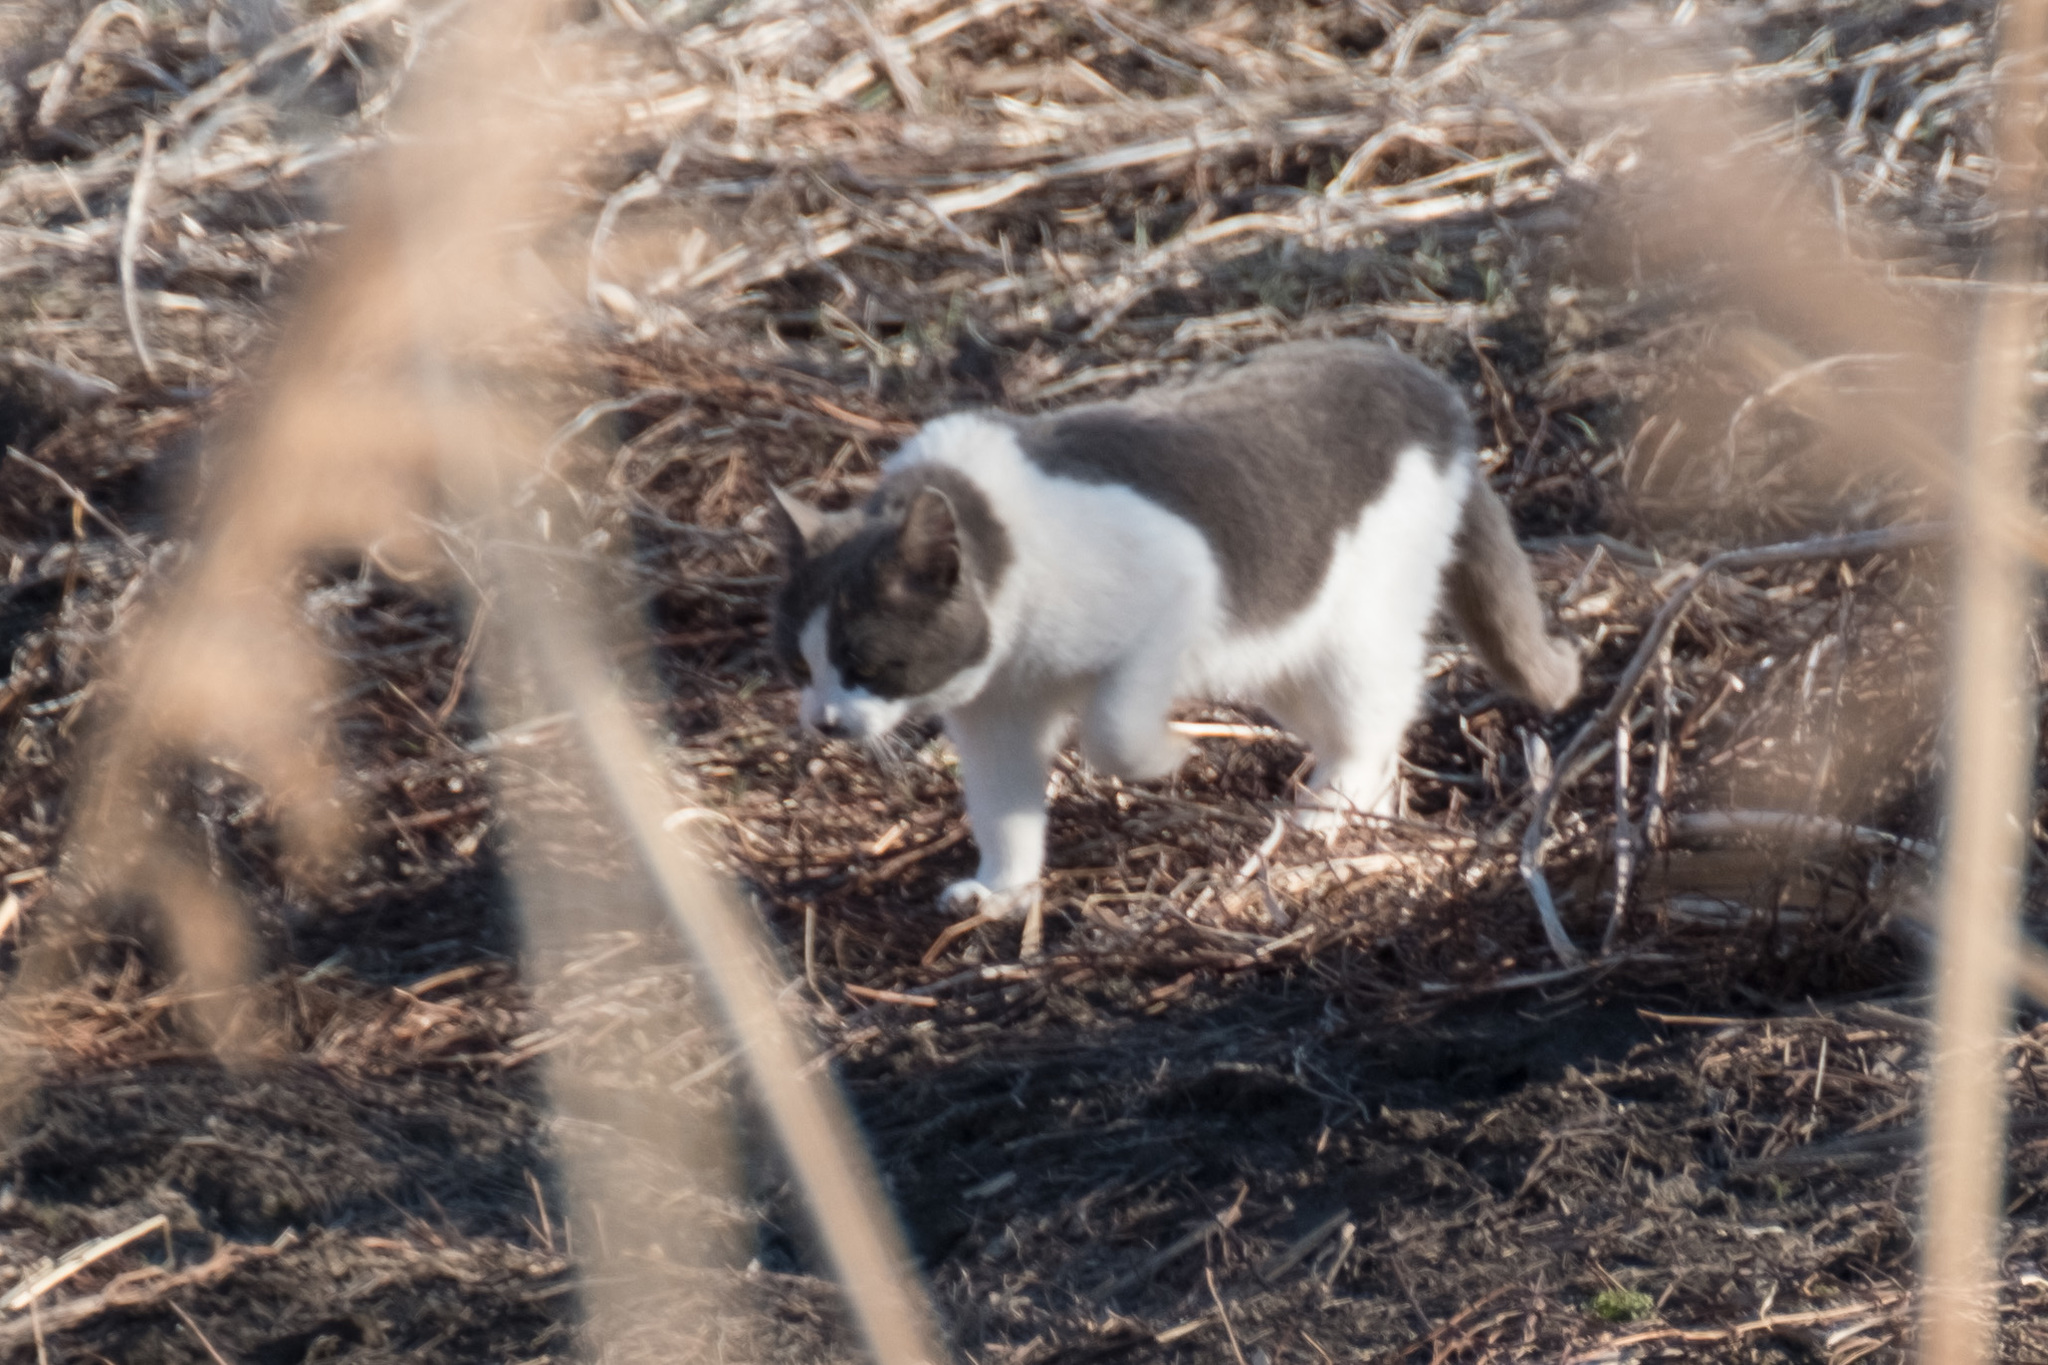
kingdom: Animalia
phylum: Chordata
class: Mammalia
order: Carnivora
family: Felidae
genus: Felis
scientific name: Felis catus
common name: Domestic cat
